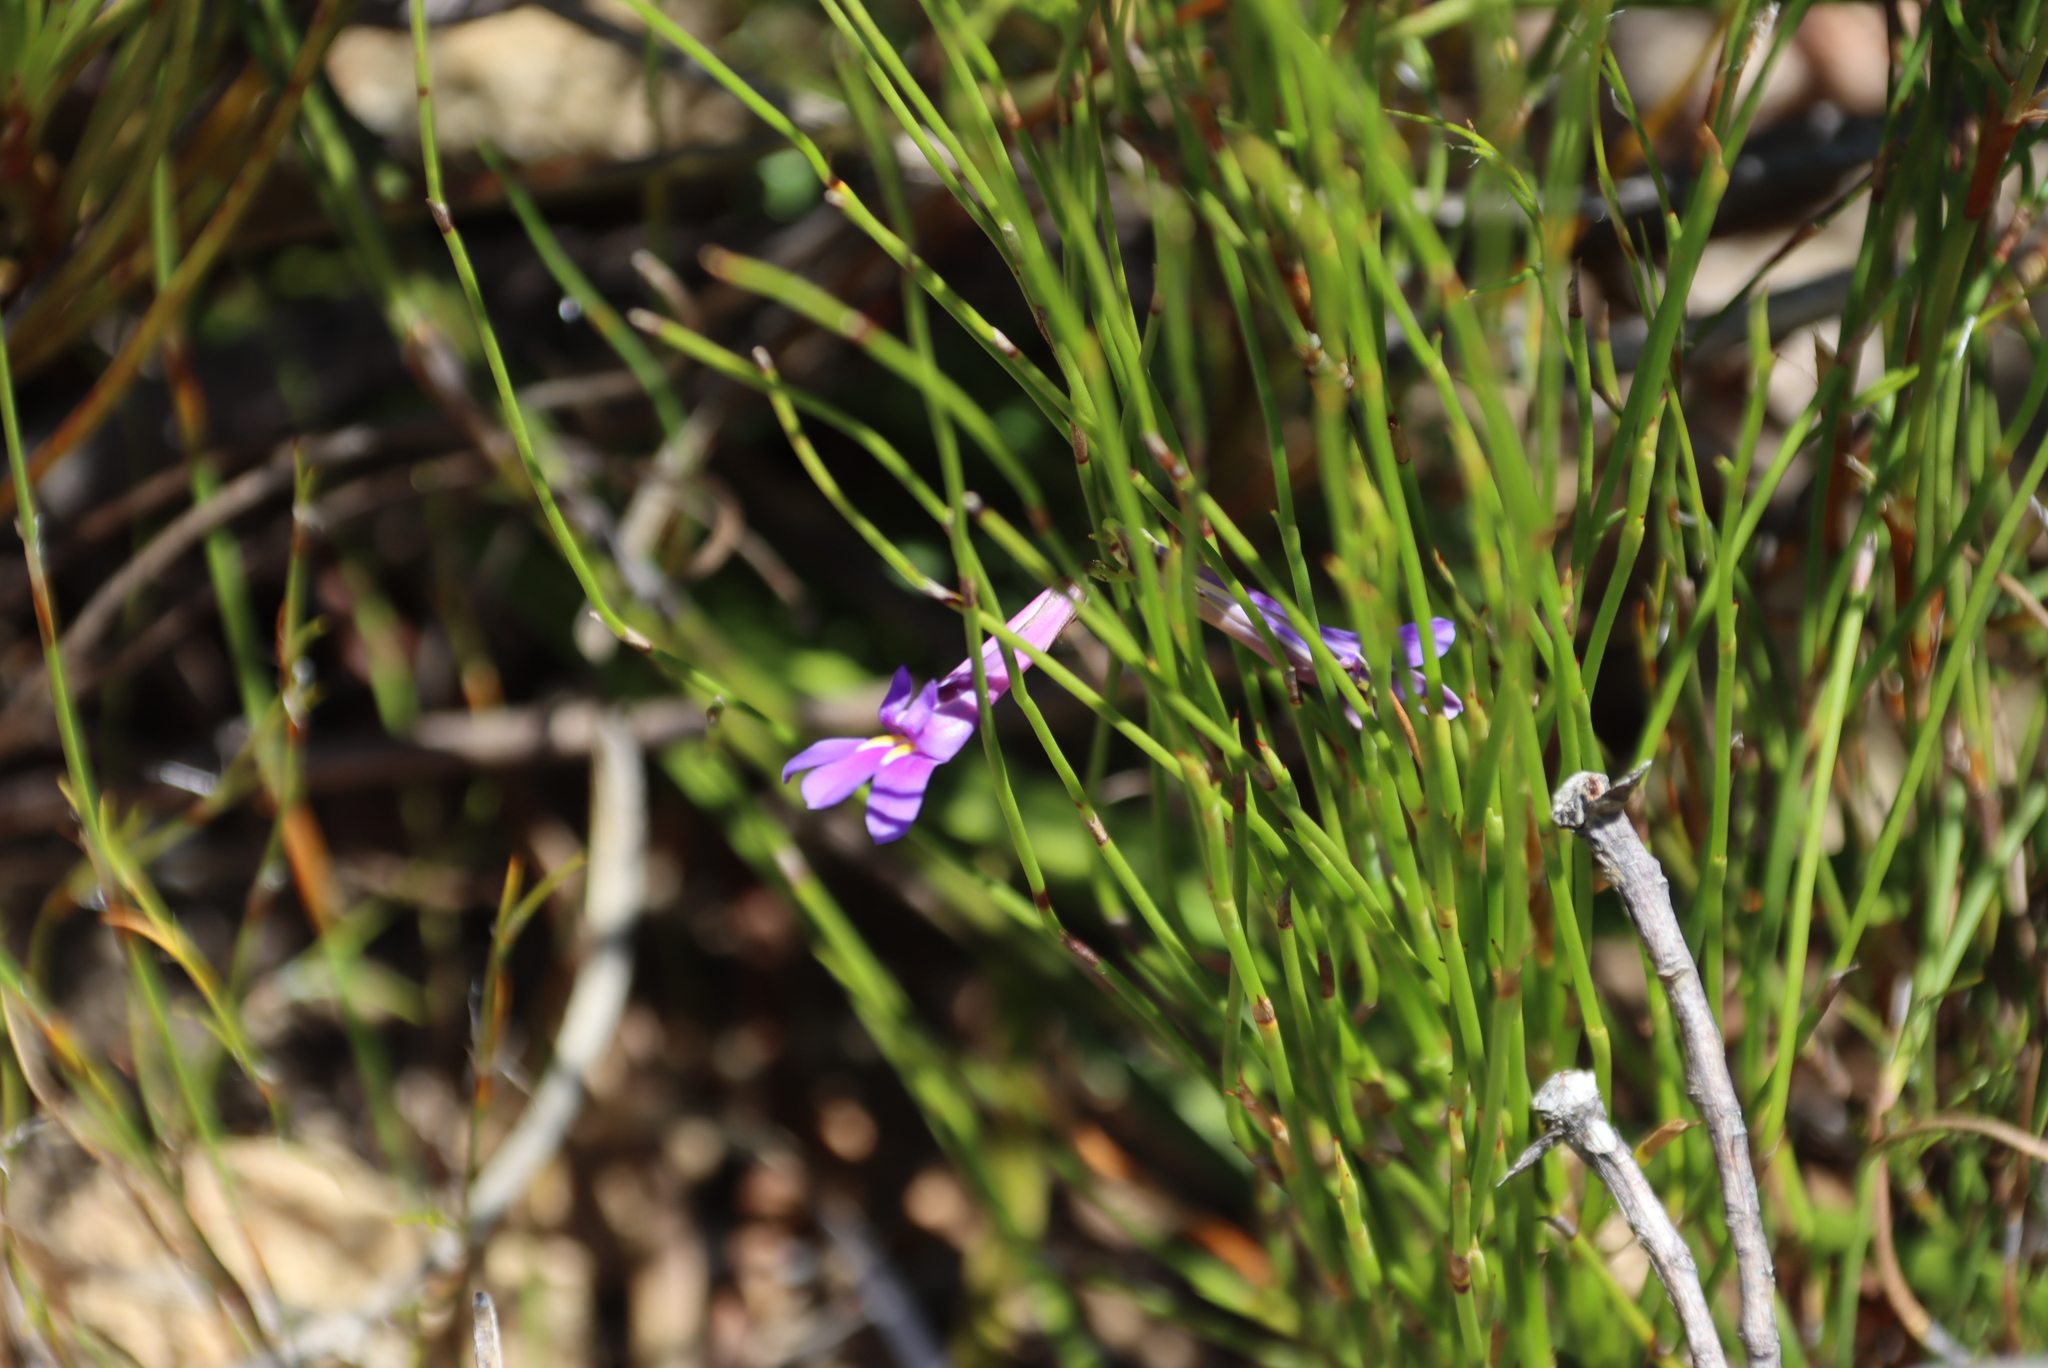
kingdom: Plantae
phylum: Tracheophyta
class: Magnoliopsida
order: Asterales
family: Campanulaceae
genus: Lobelia
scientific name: Lobelia coronopifolia
